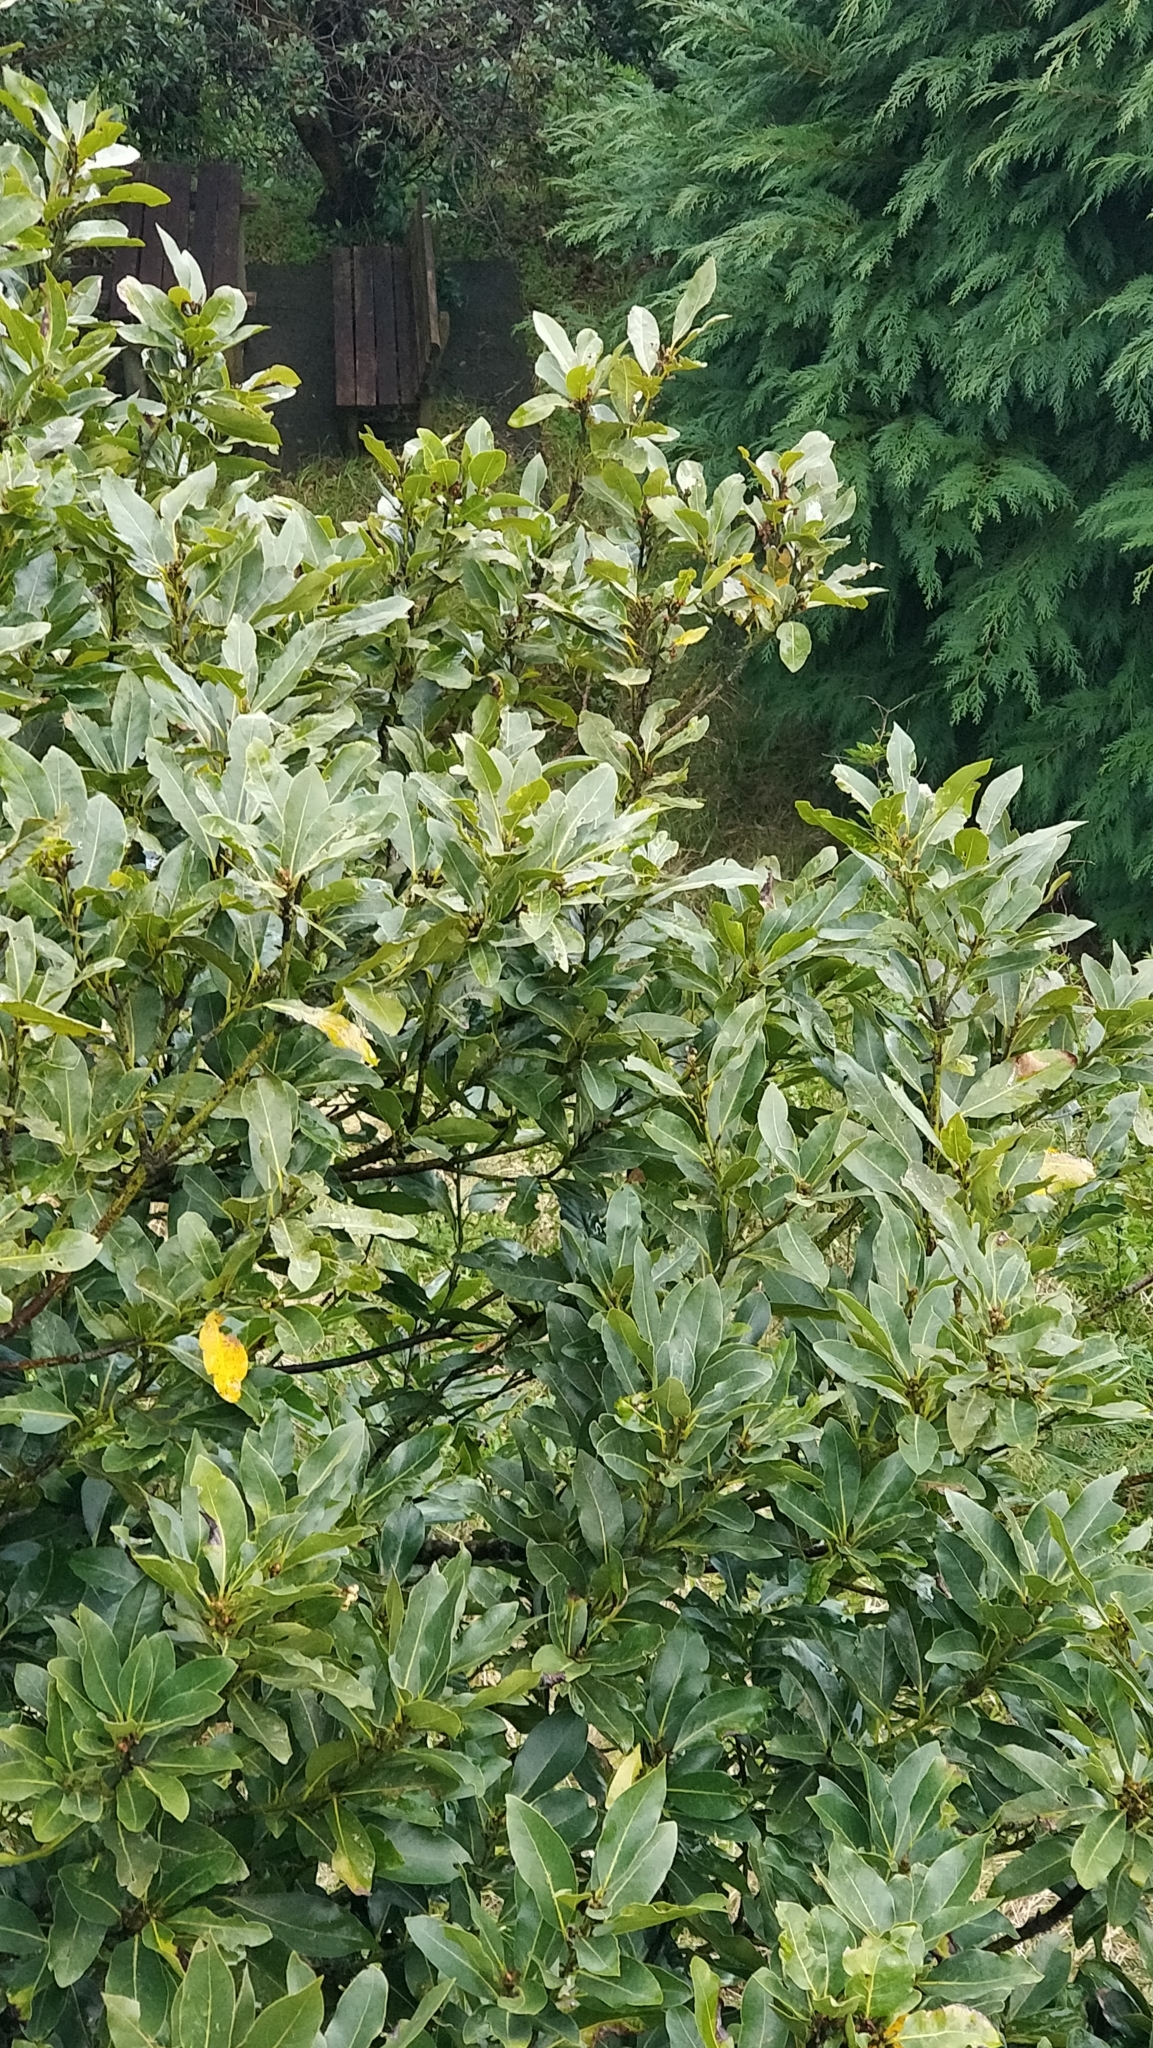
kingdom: Plantae
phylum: Tracheophyta
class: Magnoliopsida
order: Laurales
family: Lauraceae
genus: Laurus
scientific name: Laurus novocanariensis
